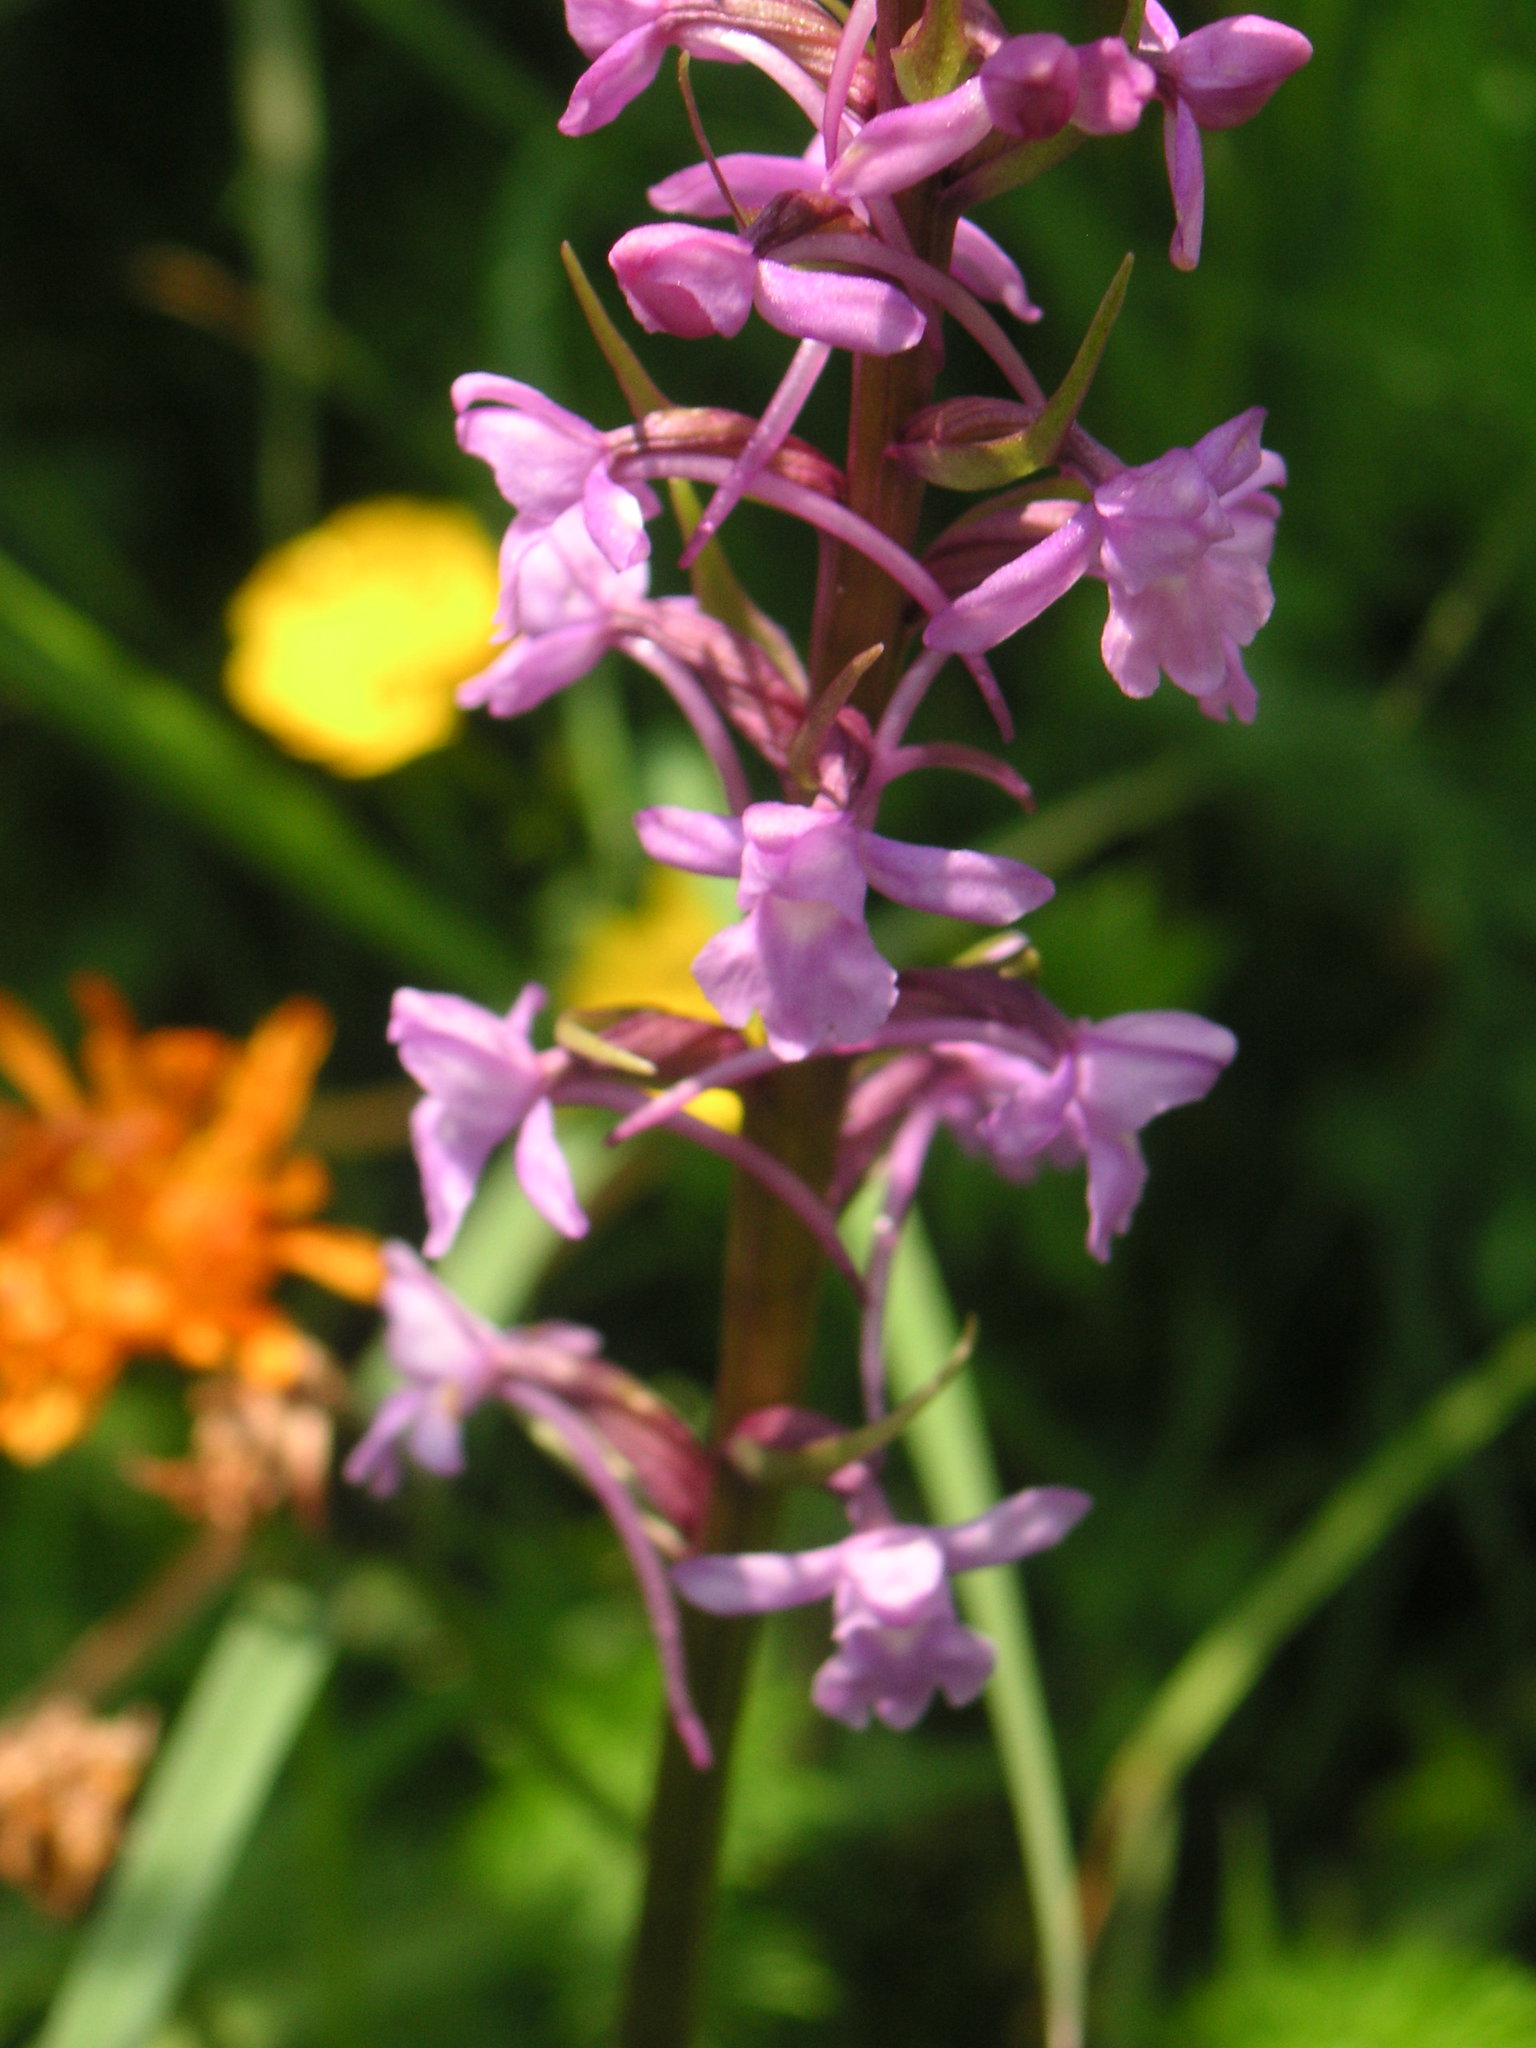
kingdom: Plantae
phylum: Tracheophyta
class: Liliopsida
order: Asparagales
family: Orchidaceae
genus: Gymnadenia
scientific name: Gymnadenia conopsea
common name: Fragrant orchid
